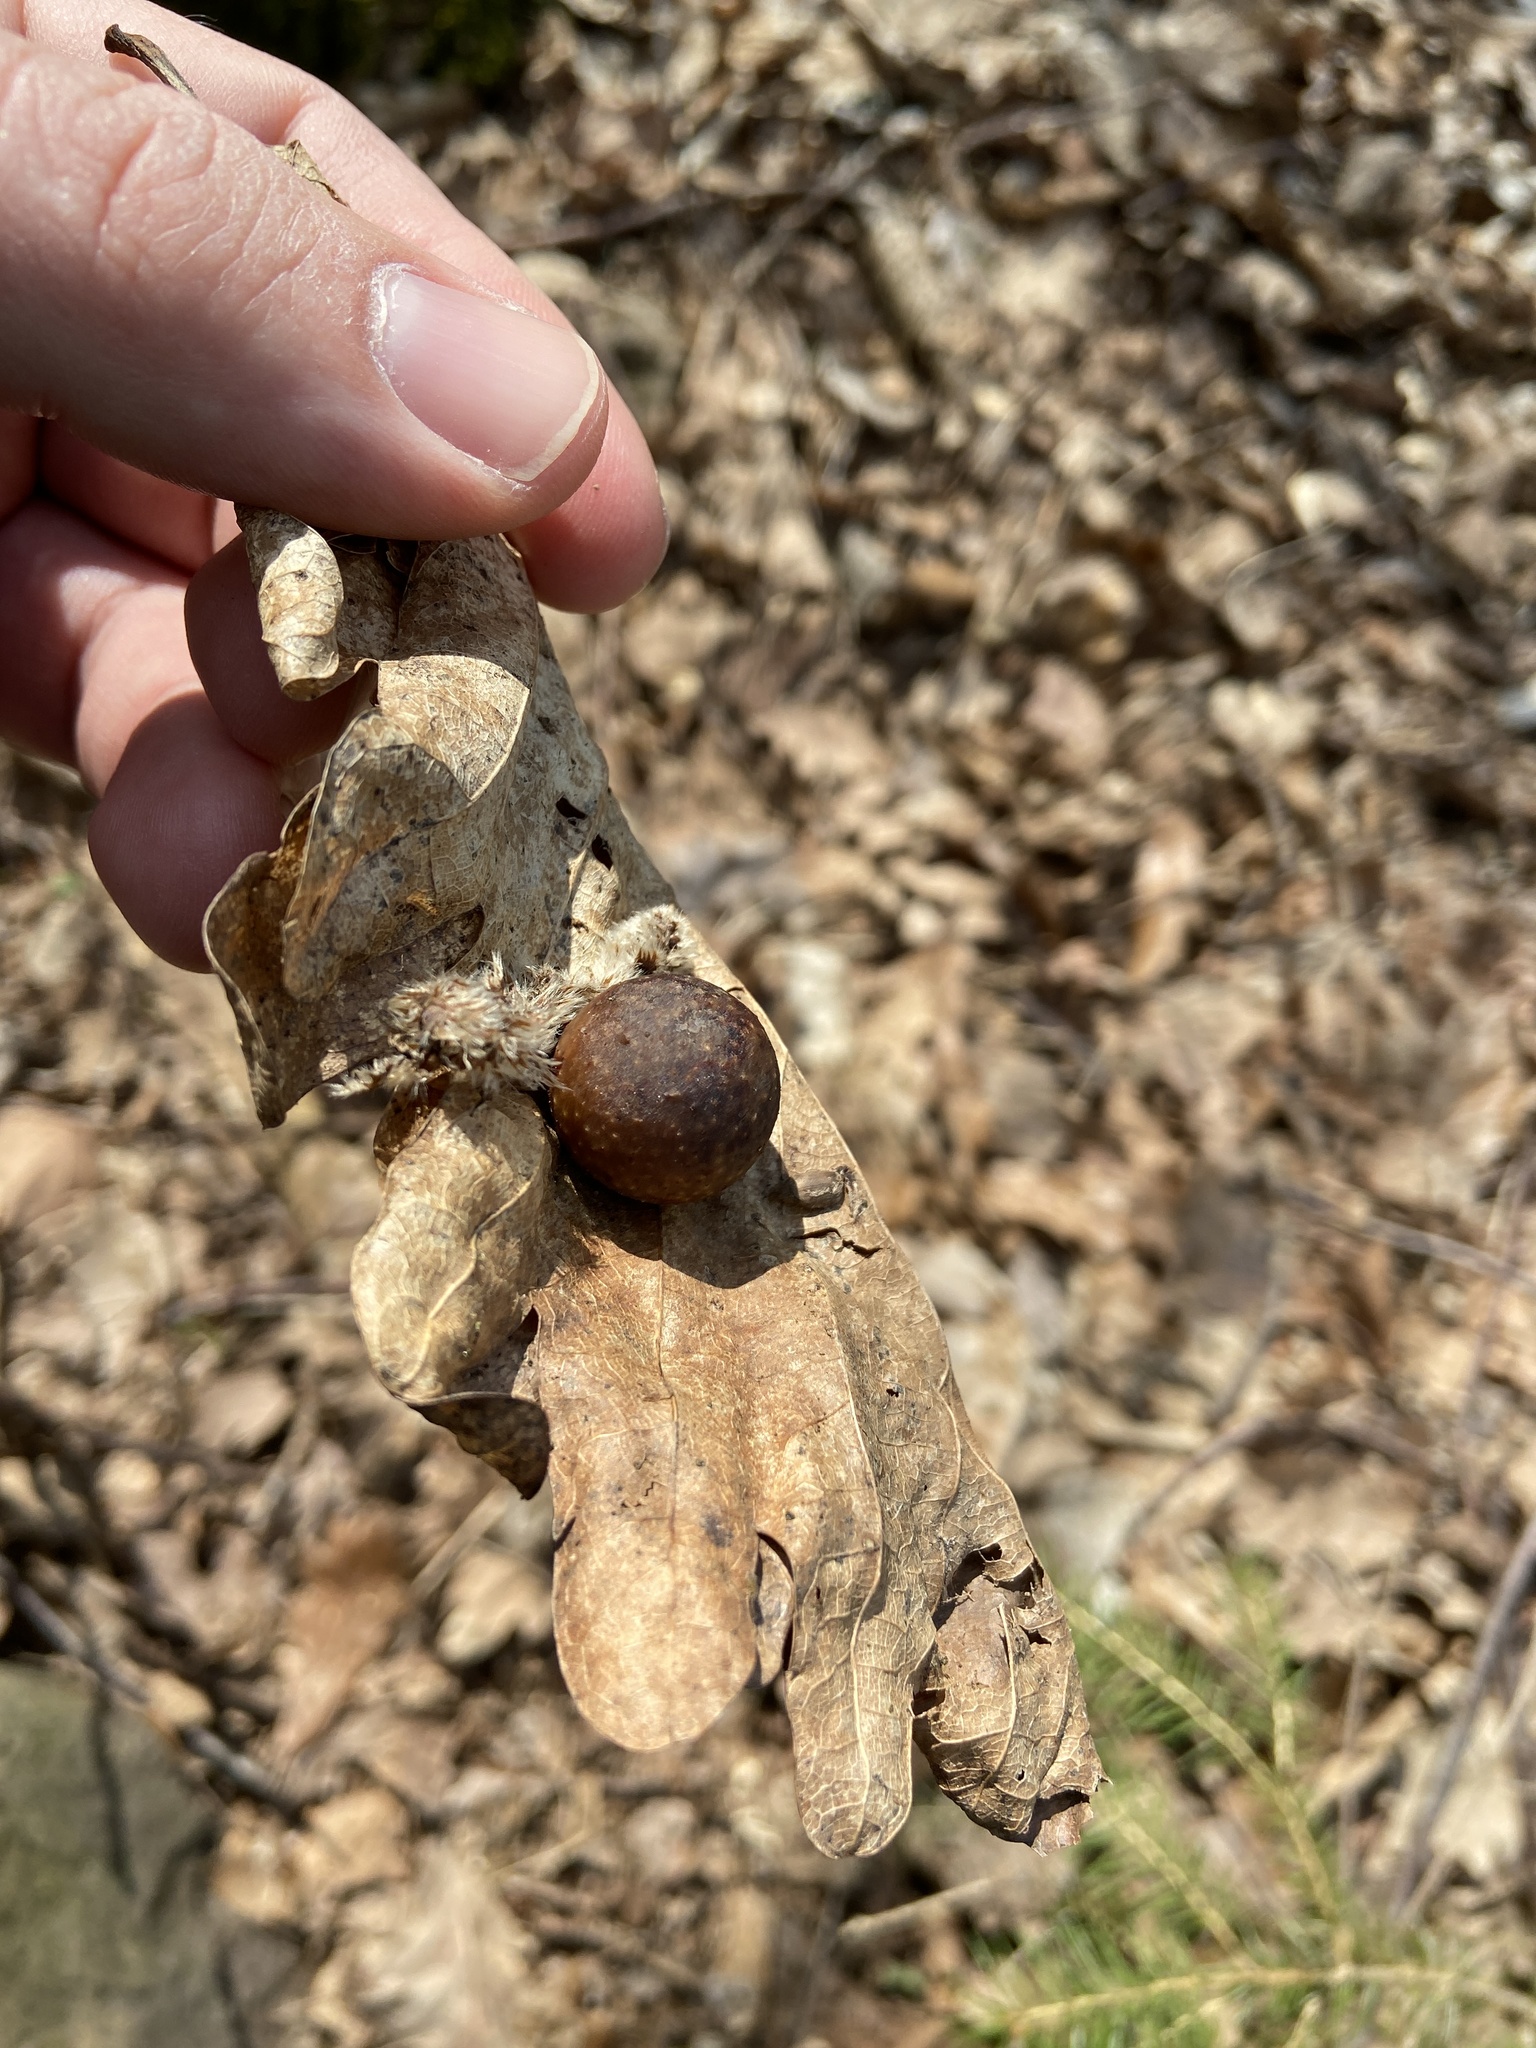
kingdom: Animalia
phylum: Arthropoda
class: Insecta
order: Hymenoptera
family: Cynipidae
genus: Cynips
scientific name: Cynips quercusfolii
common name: Cherry gall
